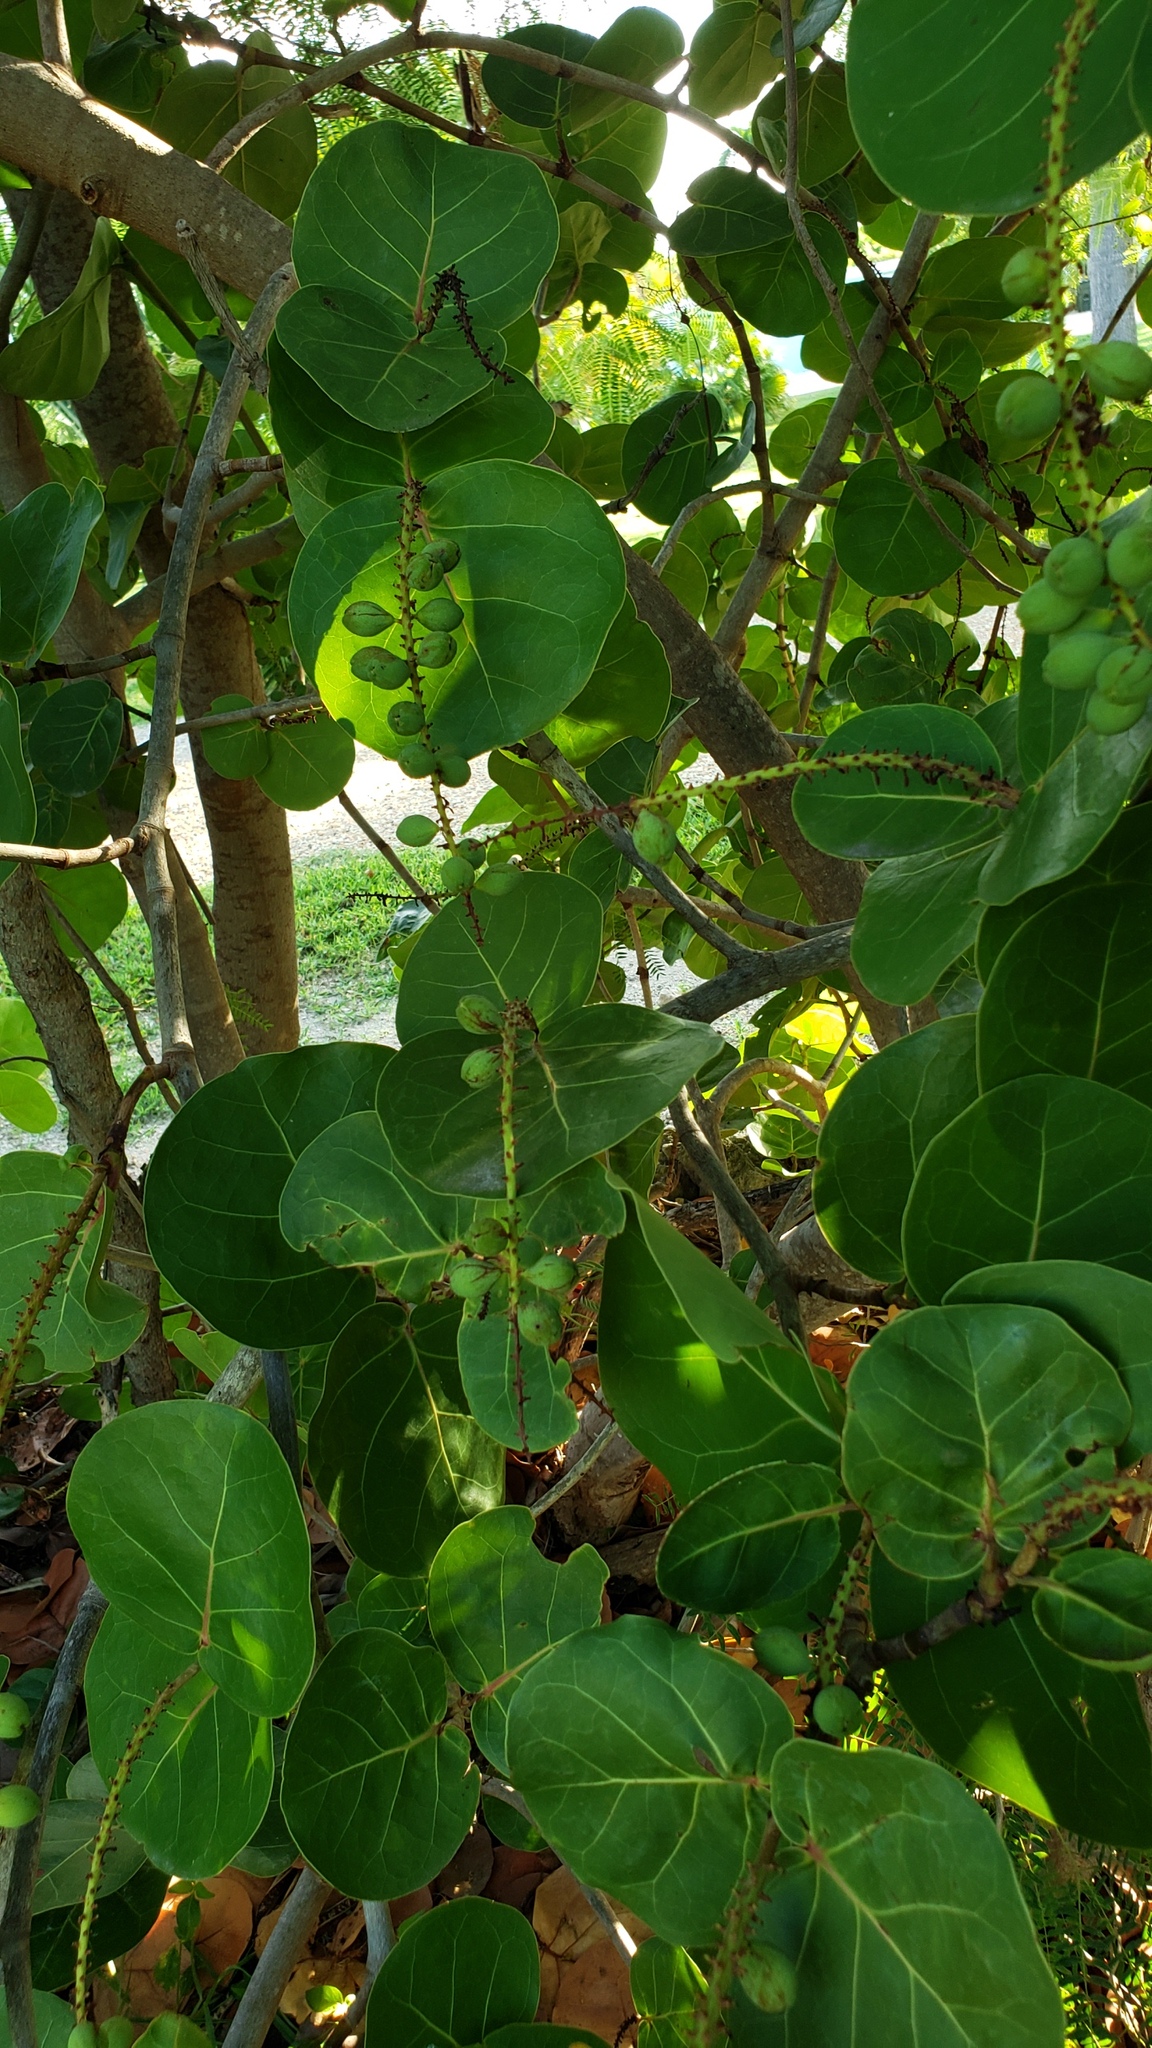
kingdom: Plantae
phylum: Tracheophyta
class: Magnoliopsida
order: Caryophyllales
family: Polygonaceae
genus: Coccoloba
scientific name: Coccoloba uvifera
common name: Seagrape
